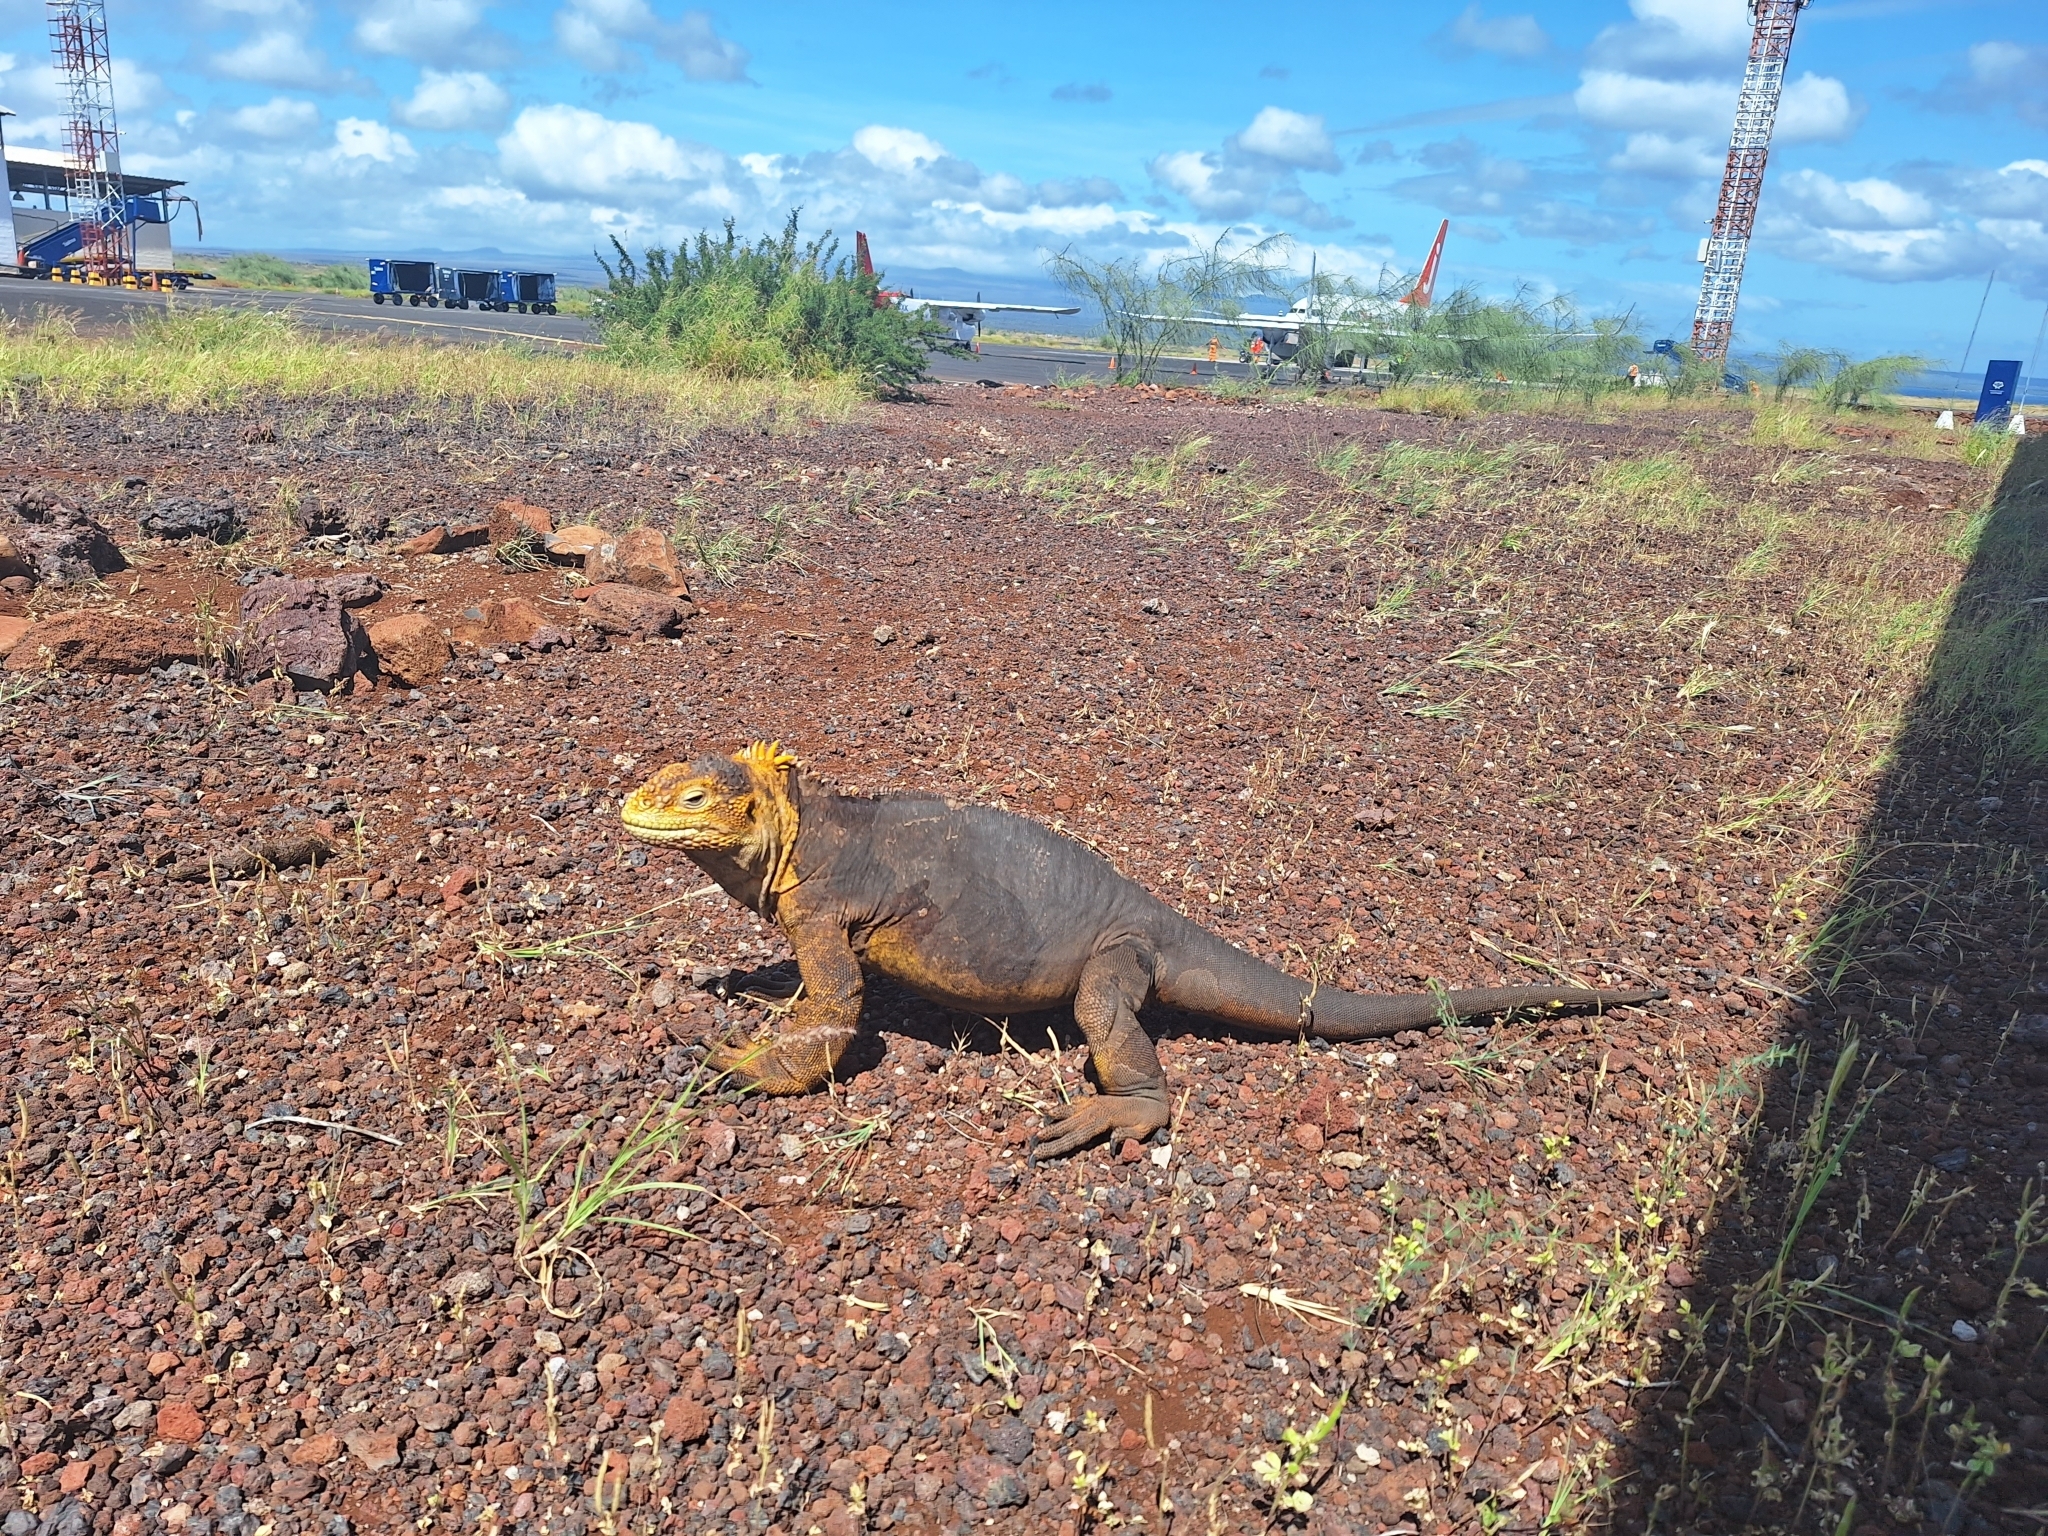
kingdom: Animalia
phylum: Chordata
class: Squamata
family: Iguanidae
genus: Conolophus
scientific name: Conolophus subcristatus
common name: Galapagos land iguana
